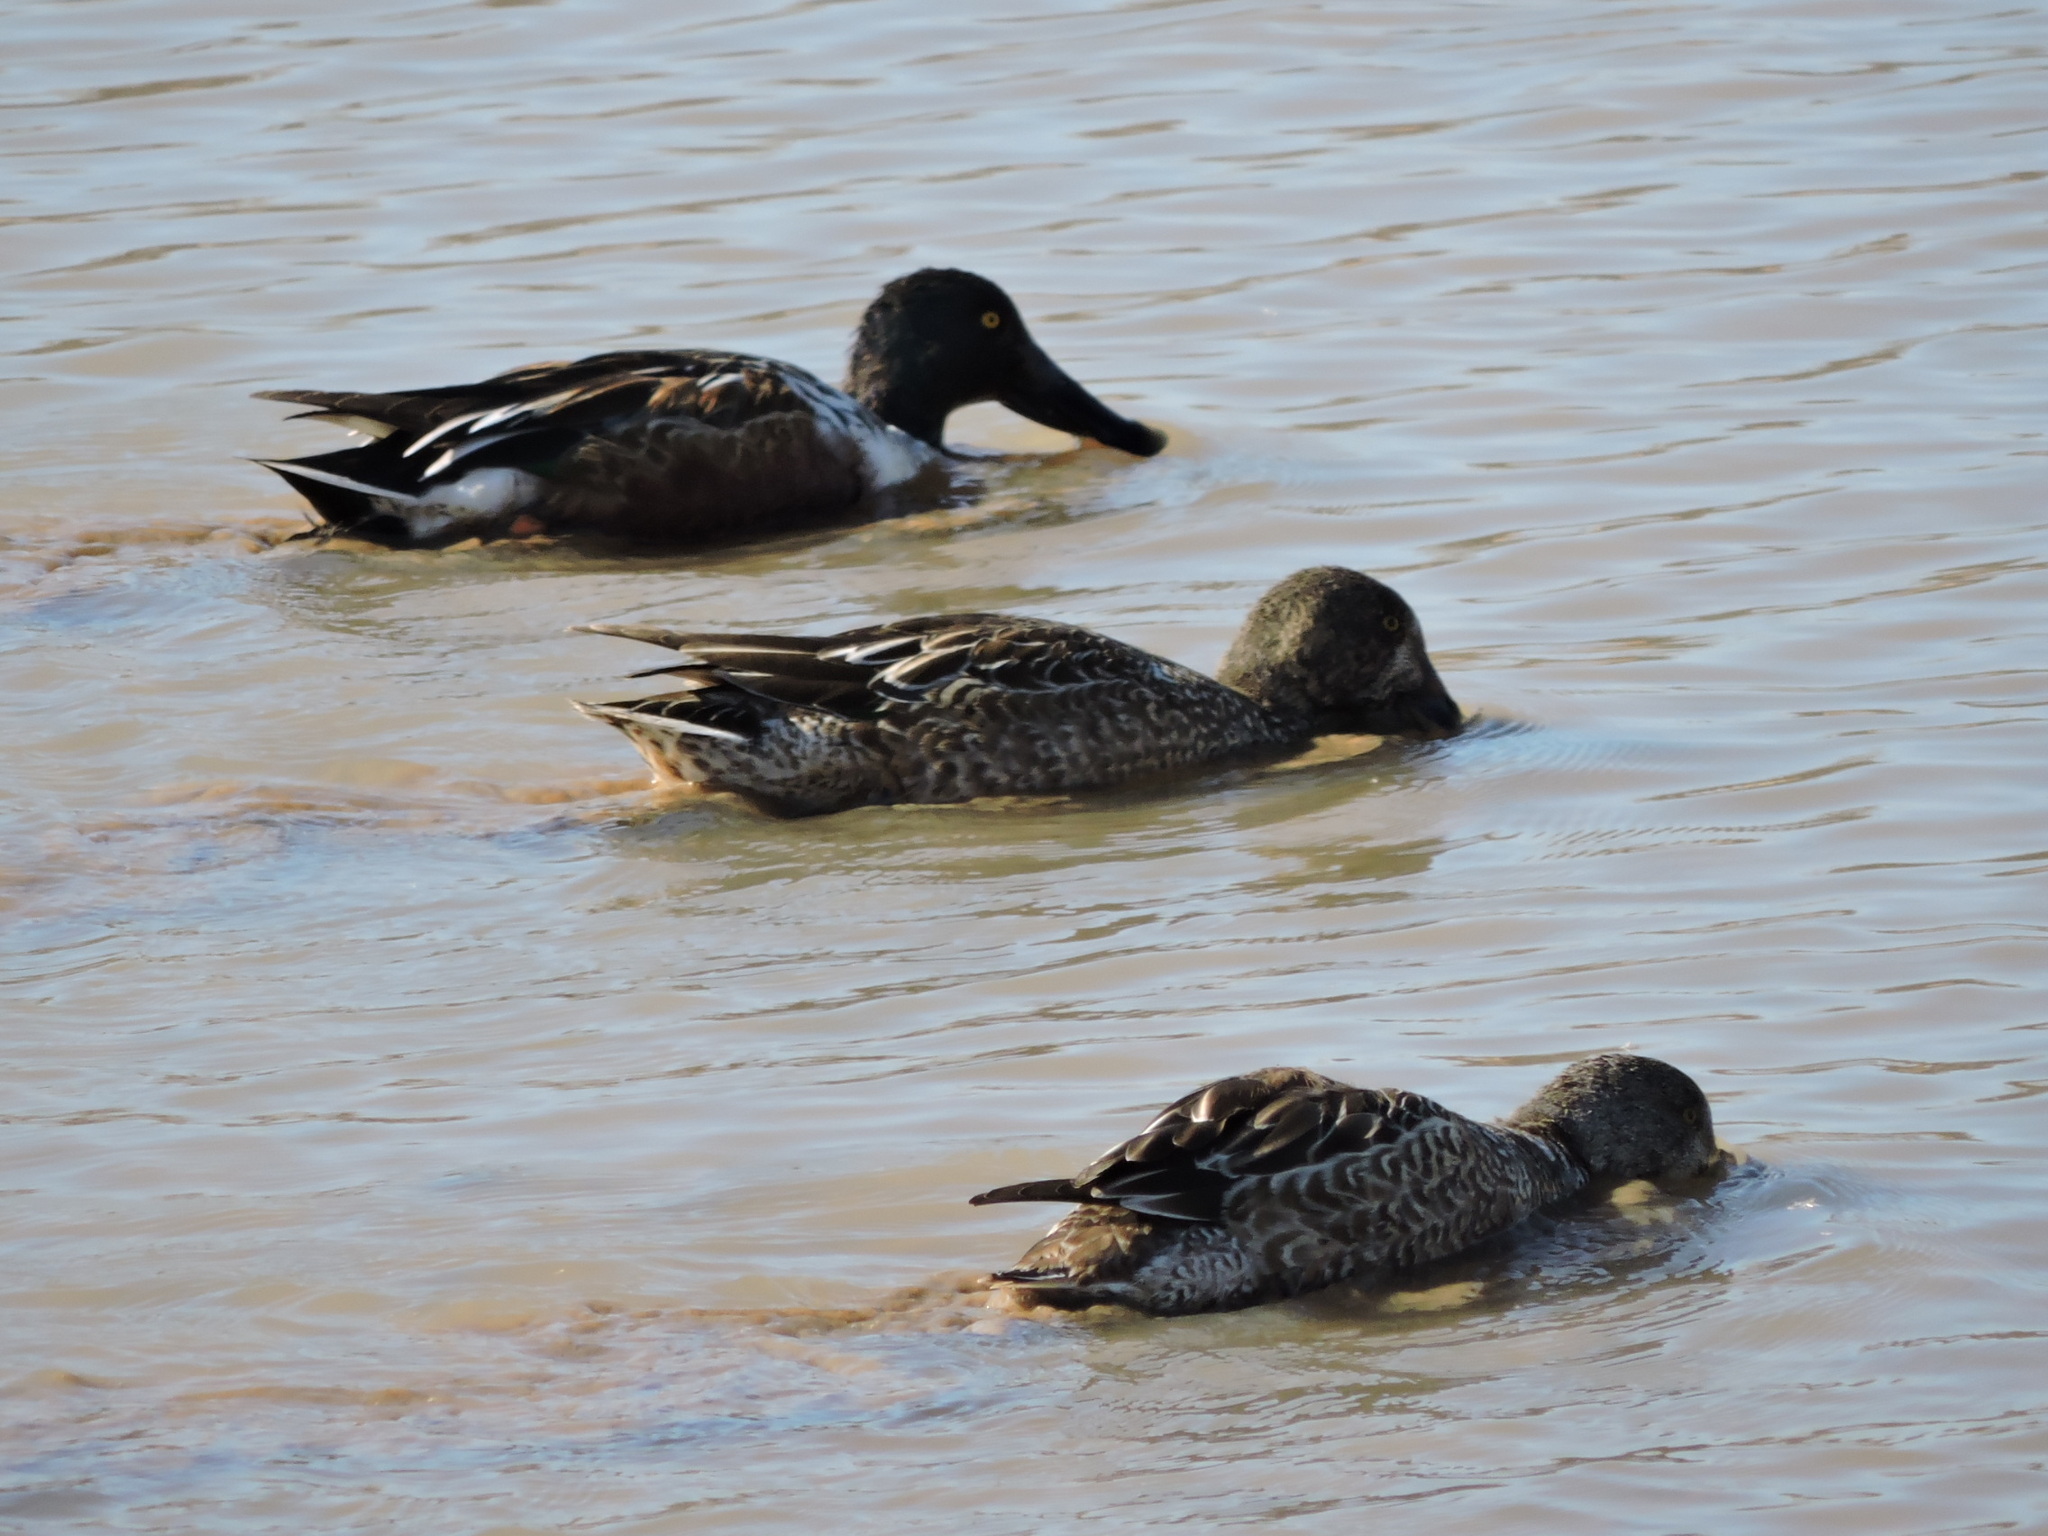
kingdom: Animalia
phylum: Chordata
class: Aves
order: Anseriformes
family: Anatidae
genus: Spatula
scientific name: Spatula clypeata
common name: Northern shoveler
